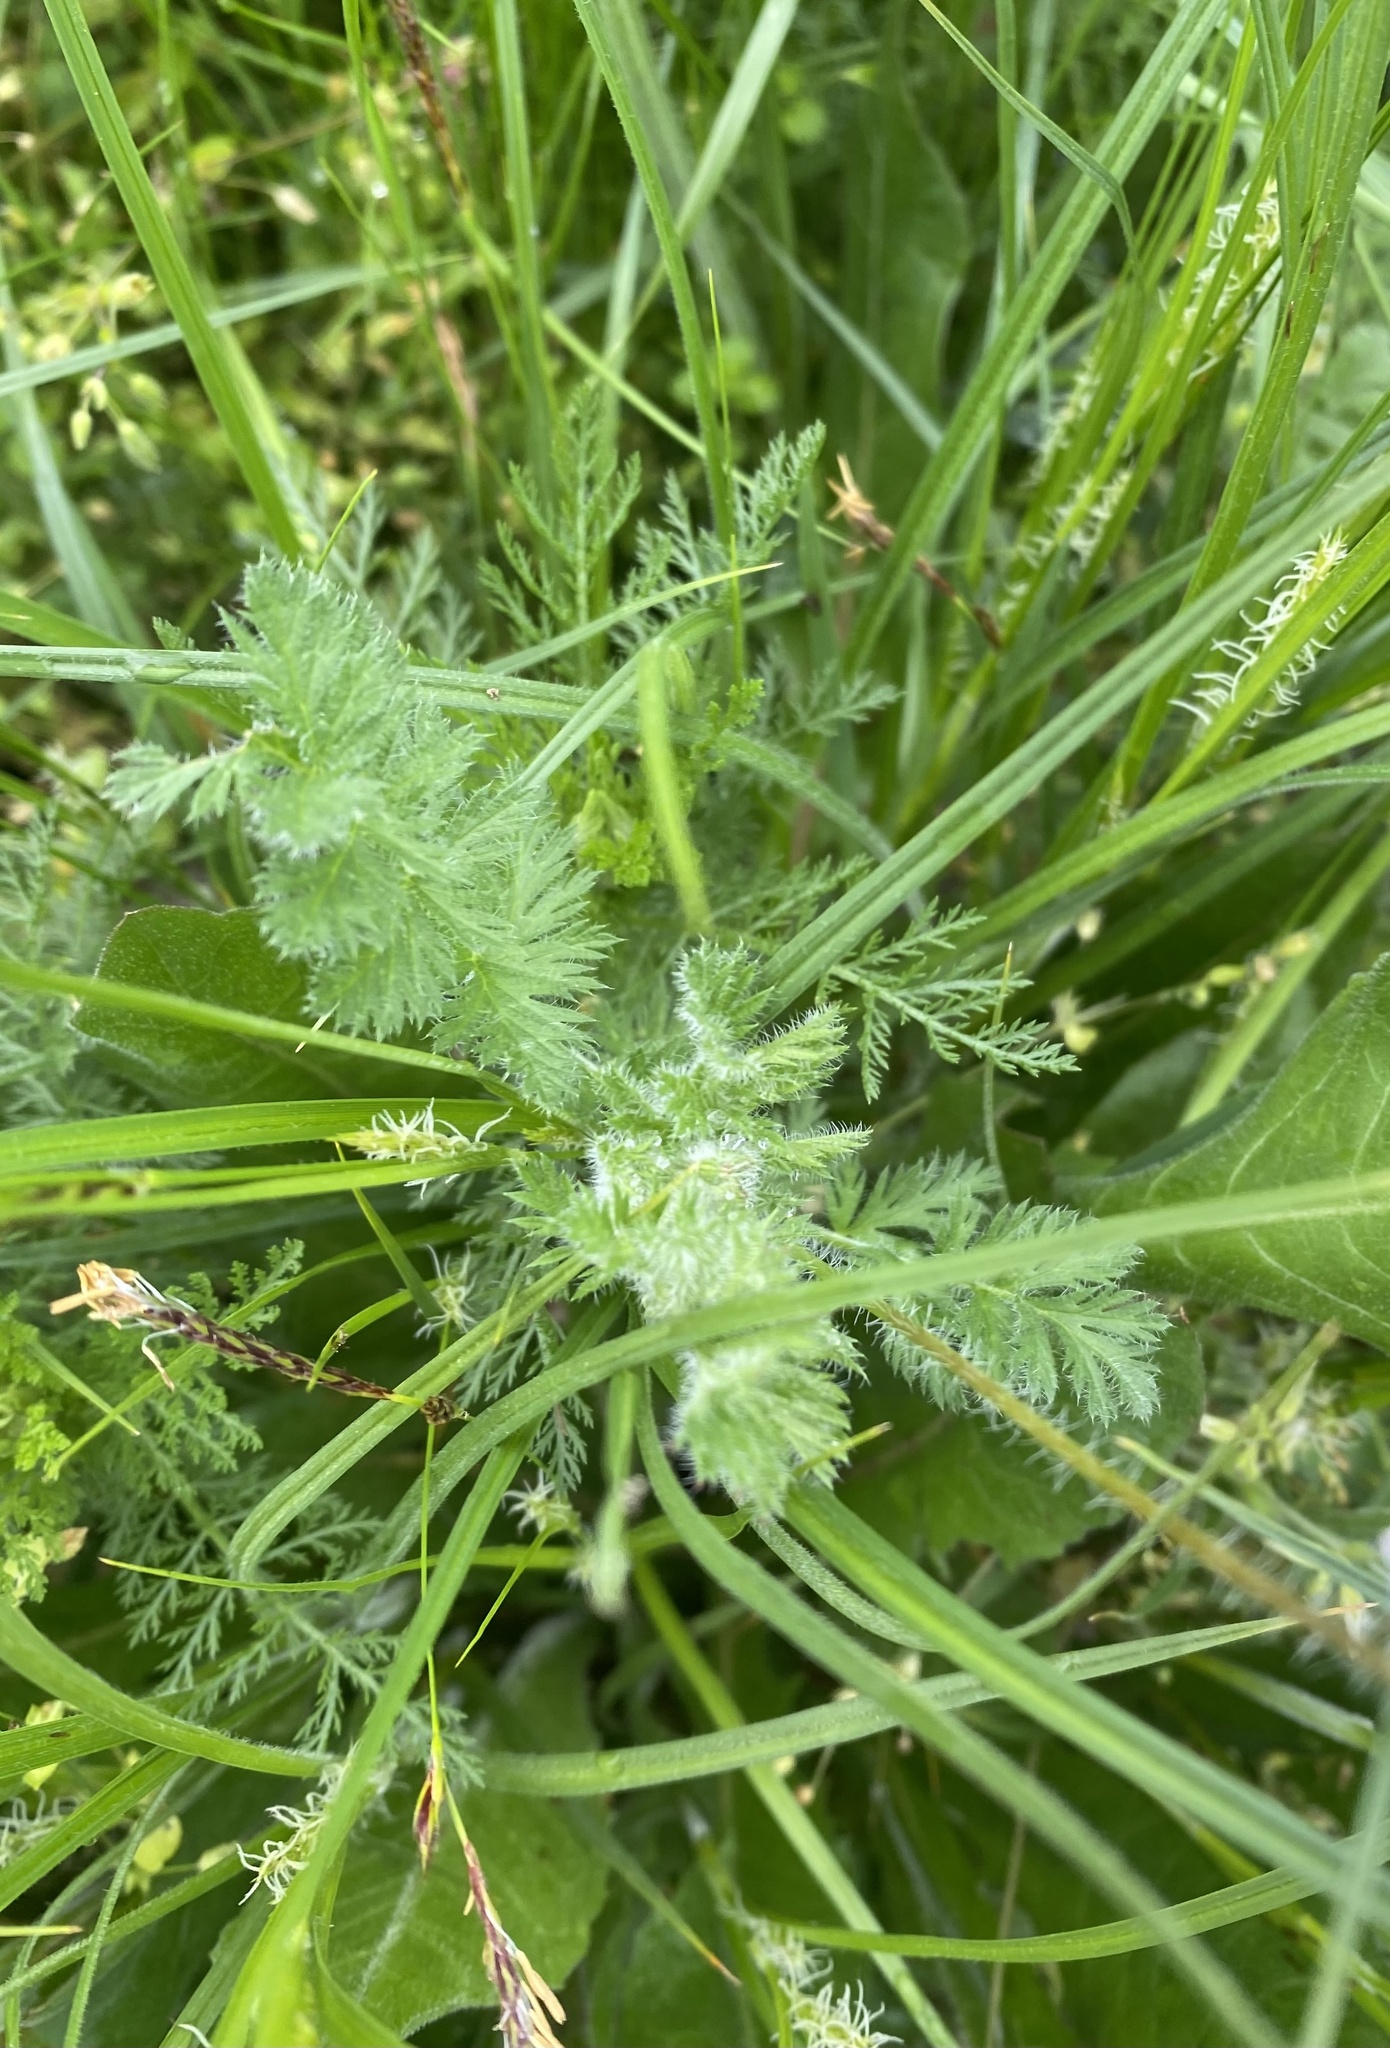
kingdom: Plantae
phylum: Tracheophyta
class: Magnoliopsida
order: Geraniales
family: Geraniaceae
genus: Erodium
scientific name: Erodium cicutarium
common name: Common stork's-bill
